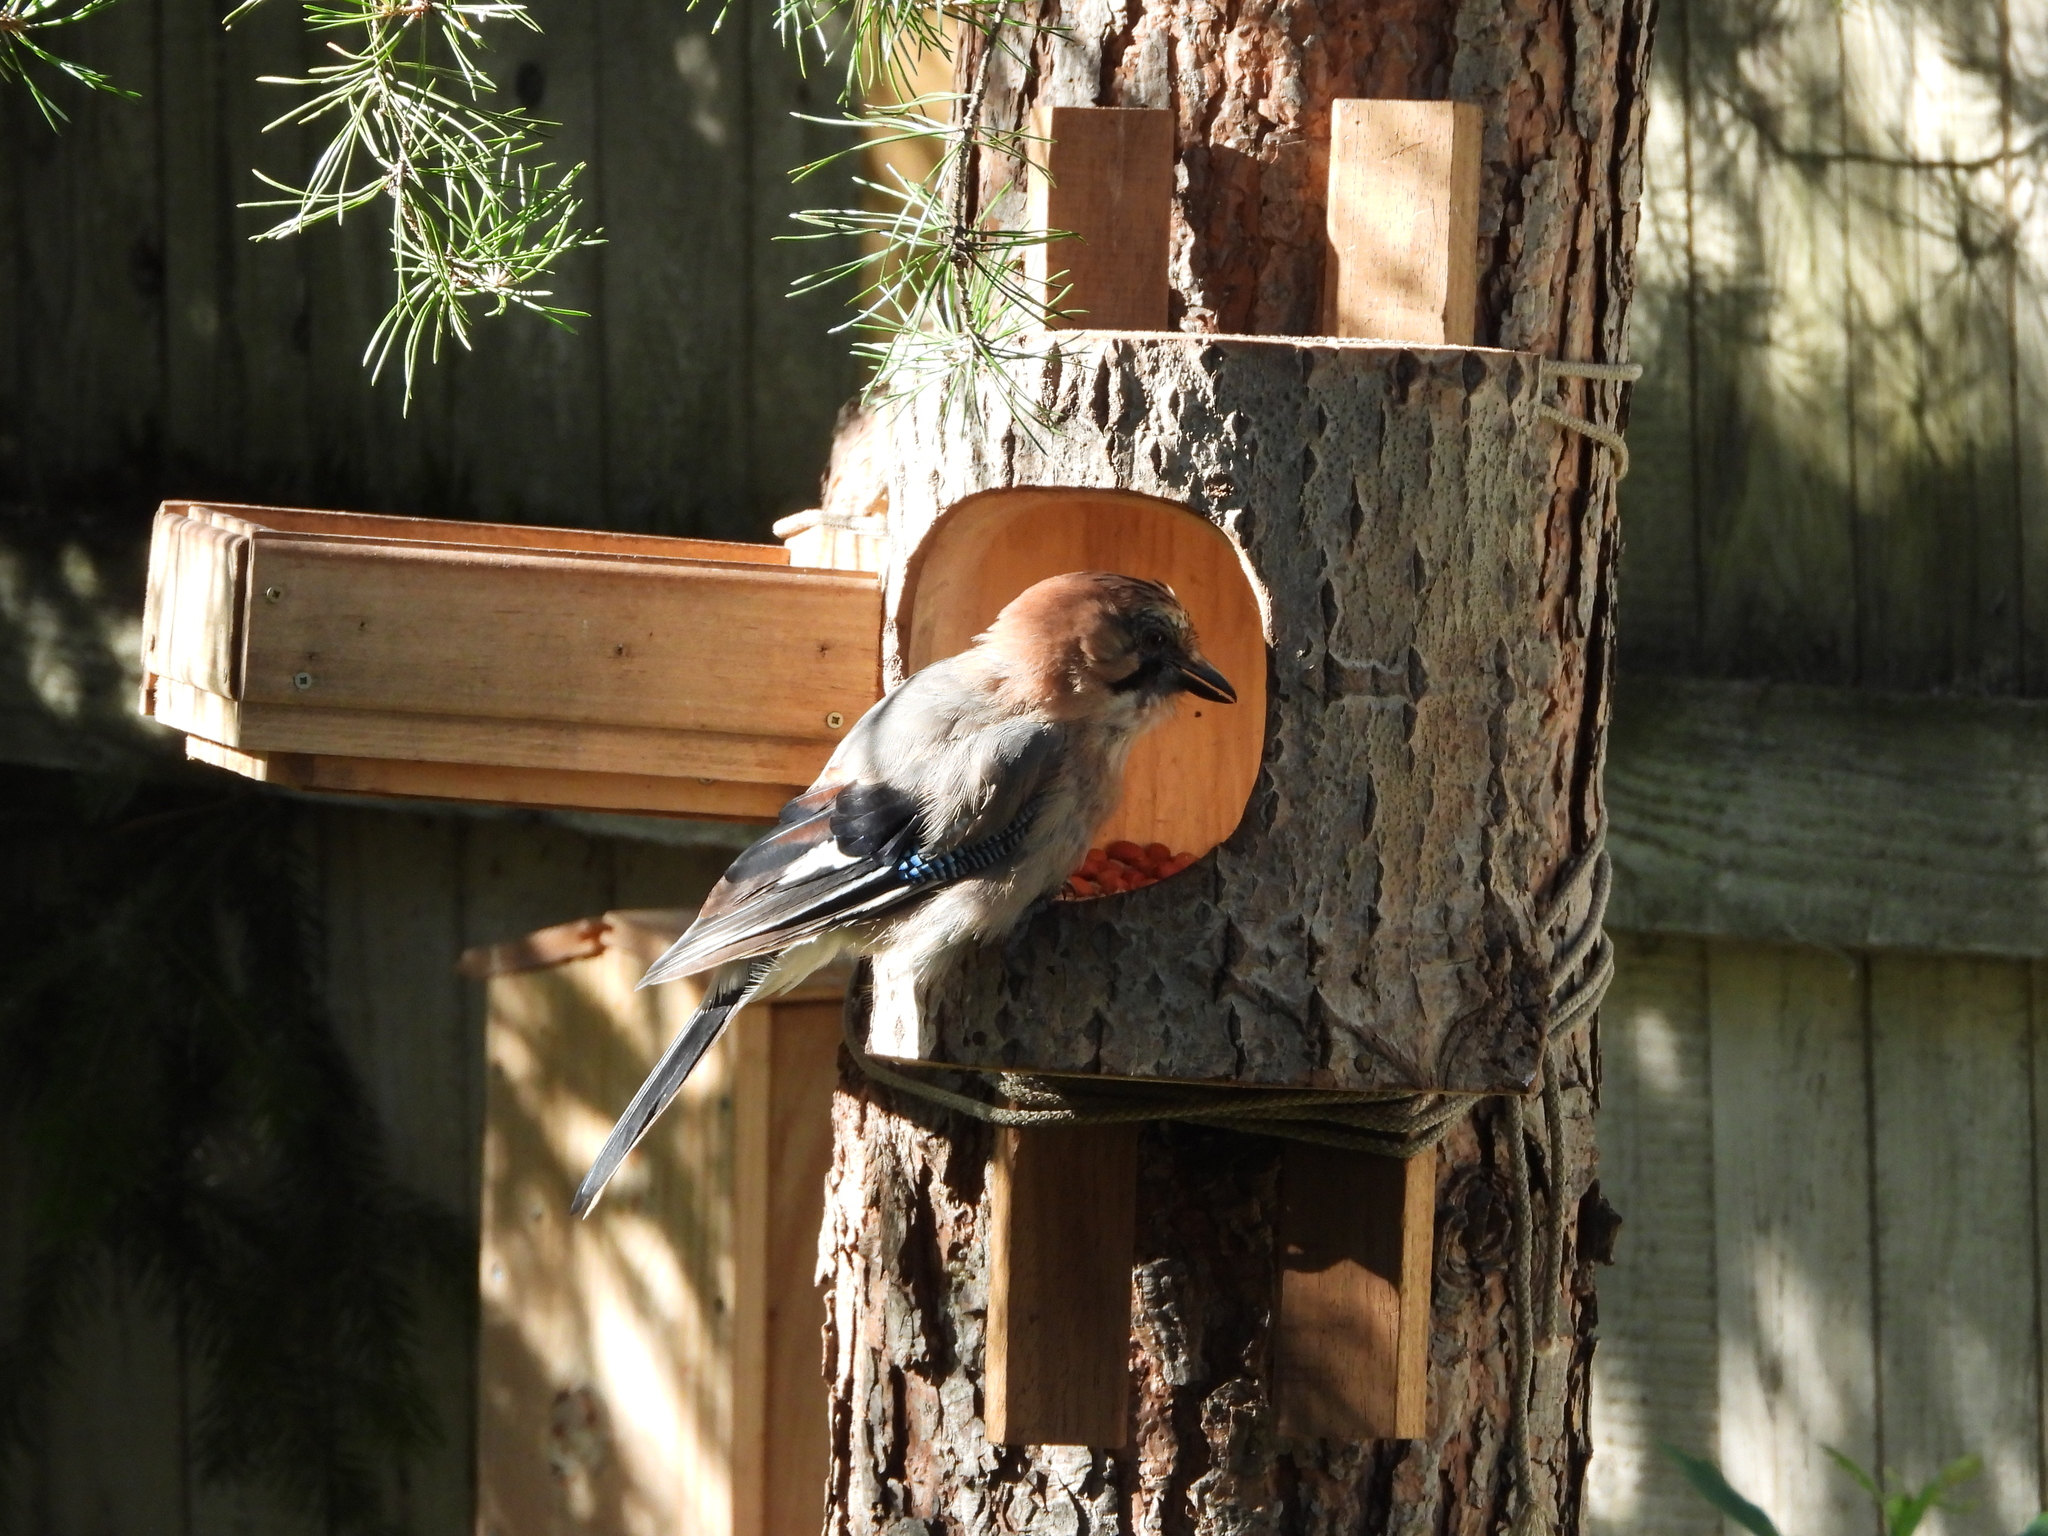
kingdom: Animalia
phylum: Chordata
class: Aves
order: Passeriformes
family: Corvidae
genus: Garrulus
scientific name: Garrulus glandarius
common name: Eurasian jay
